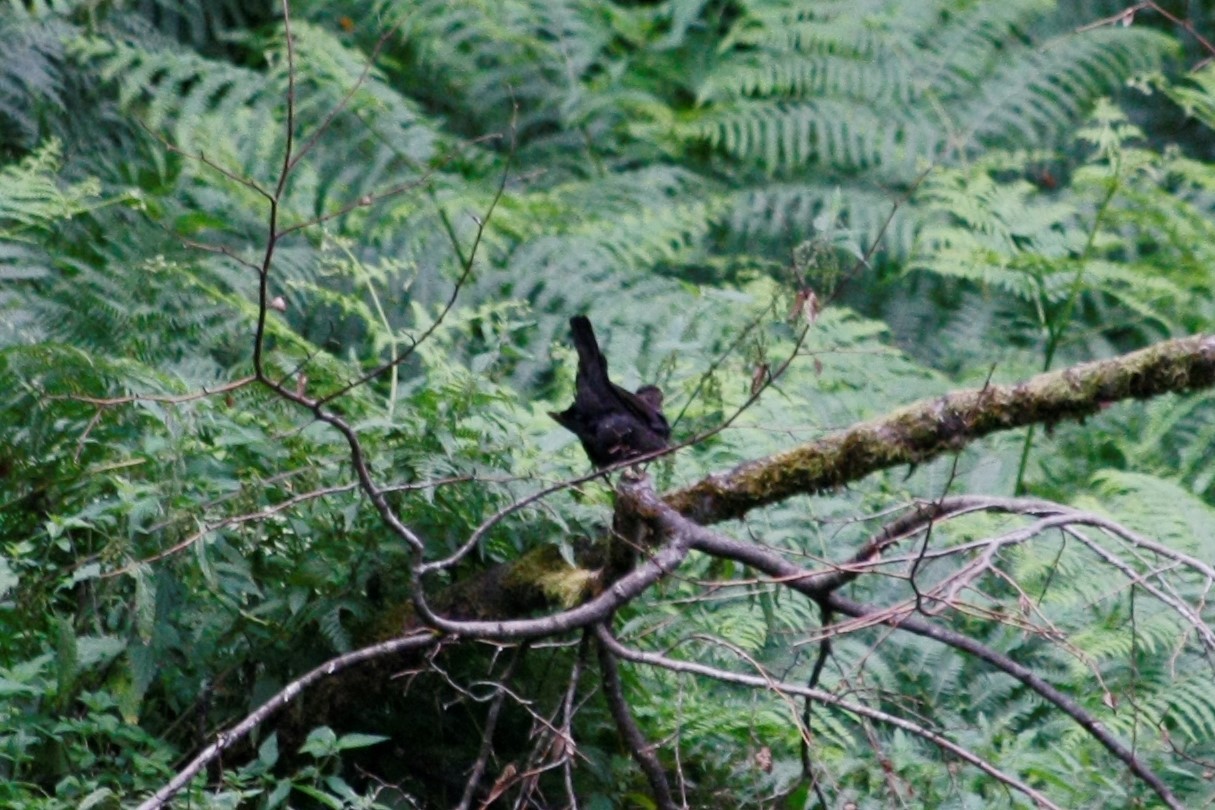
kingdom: Animalia
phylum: Chordata
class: Aves
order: Passeriformes
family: Turdidae
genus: Turdus
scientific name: Turdus merula
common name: Common blackbird
